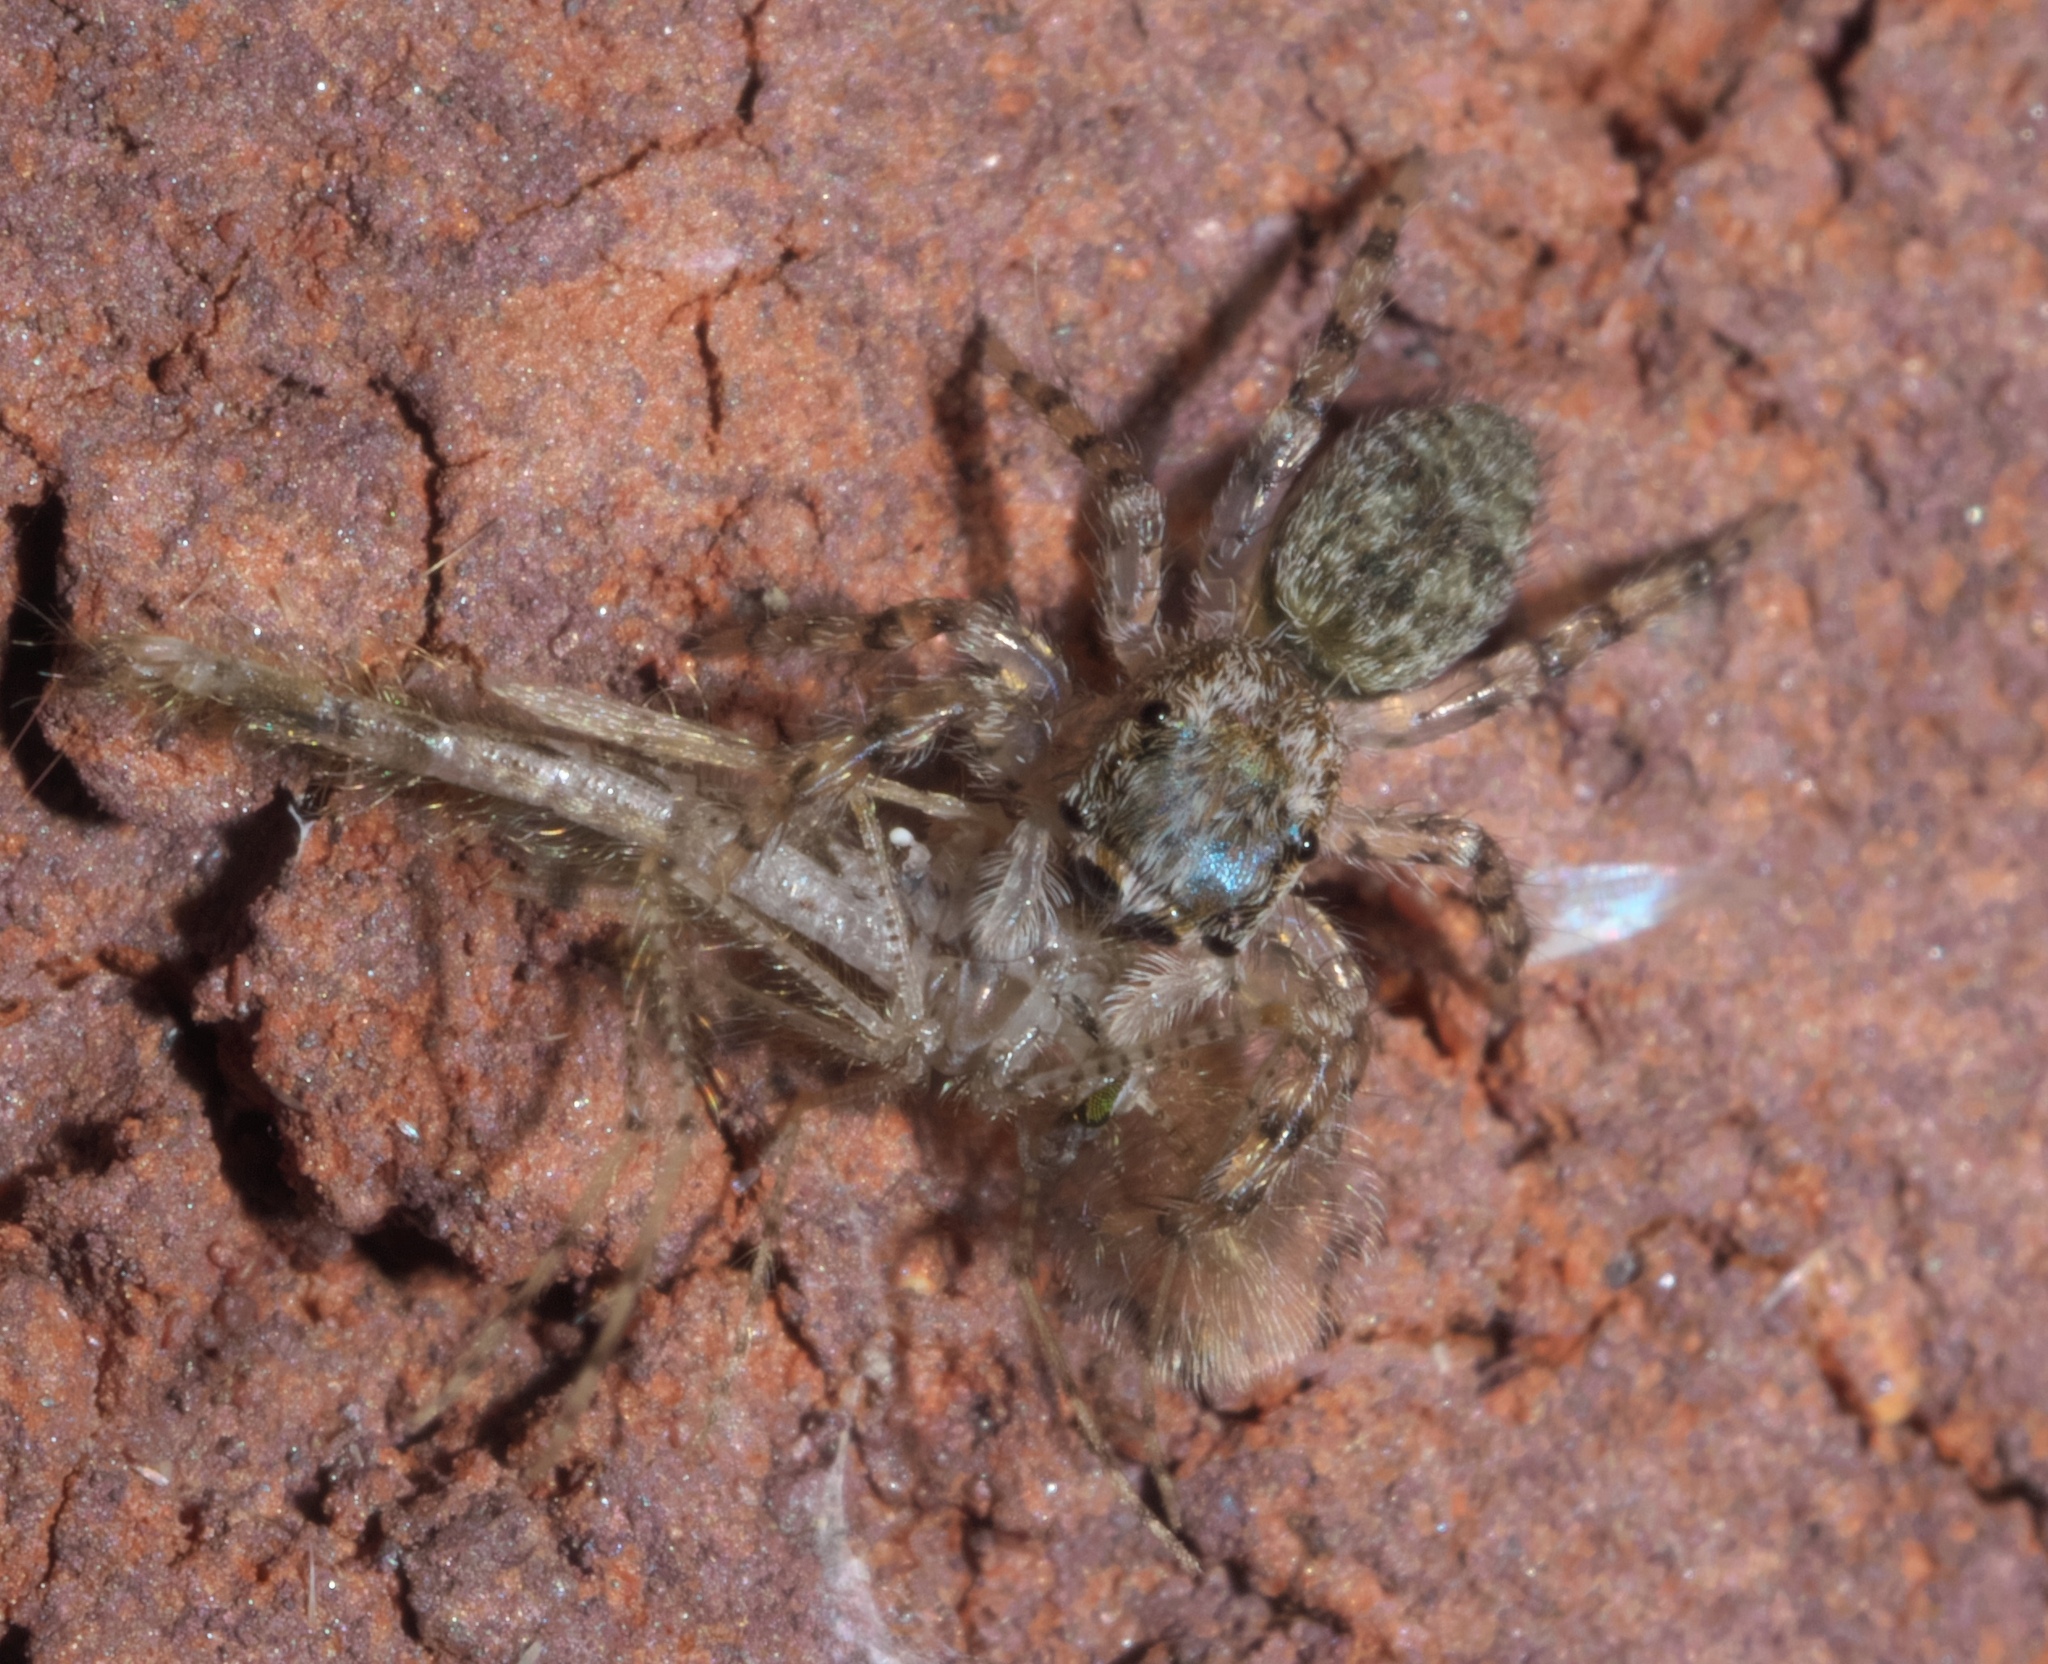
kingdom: Animalia
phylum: Arthropoda
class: Arachnida
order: Araneae
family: Salticidae
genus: Platycryptus
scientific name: Platycryptus undatus
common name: Tan jumping spider
